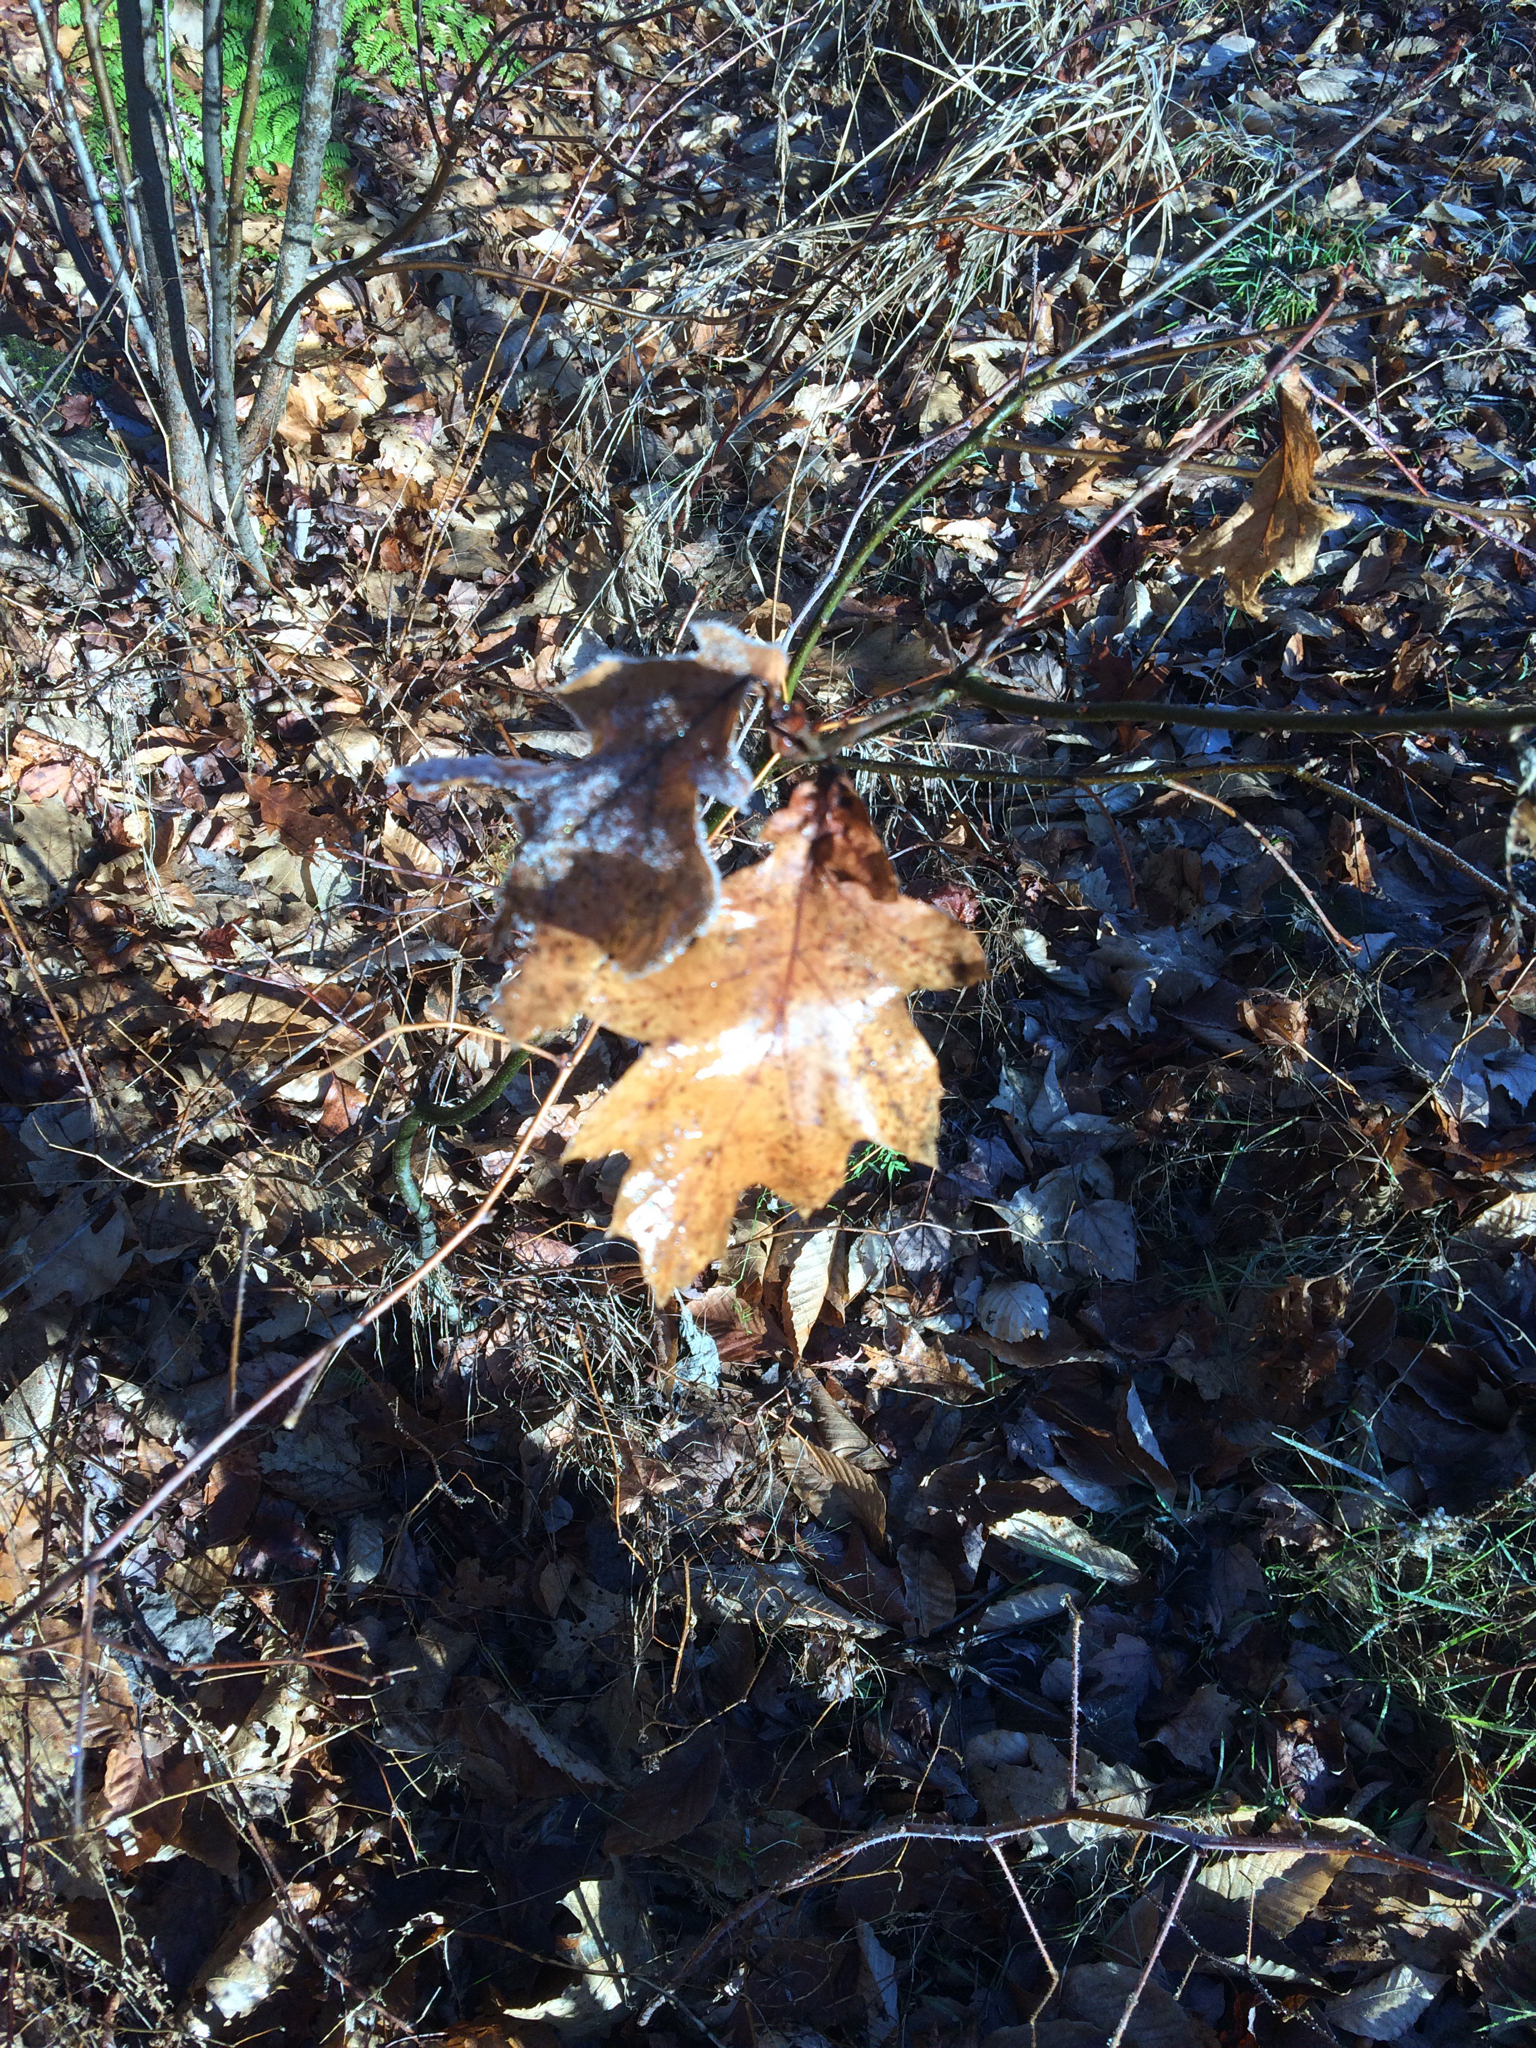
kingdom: Plantae
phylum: Tracheophyta
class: Magnoliopsida
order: Fagales
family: Fagaceae
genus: Quercus
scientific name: Quercus rubra
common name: Red oak
